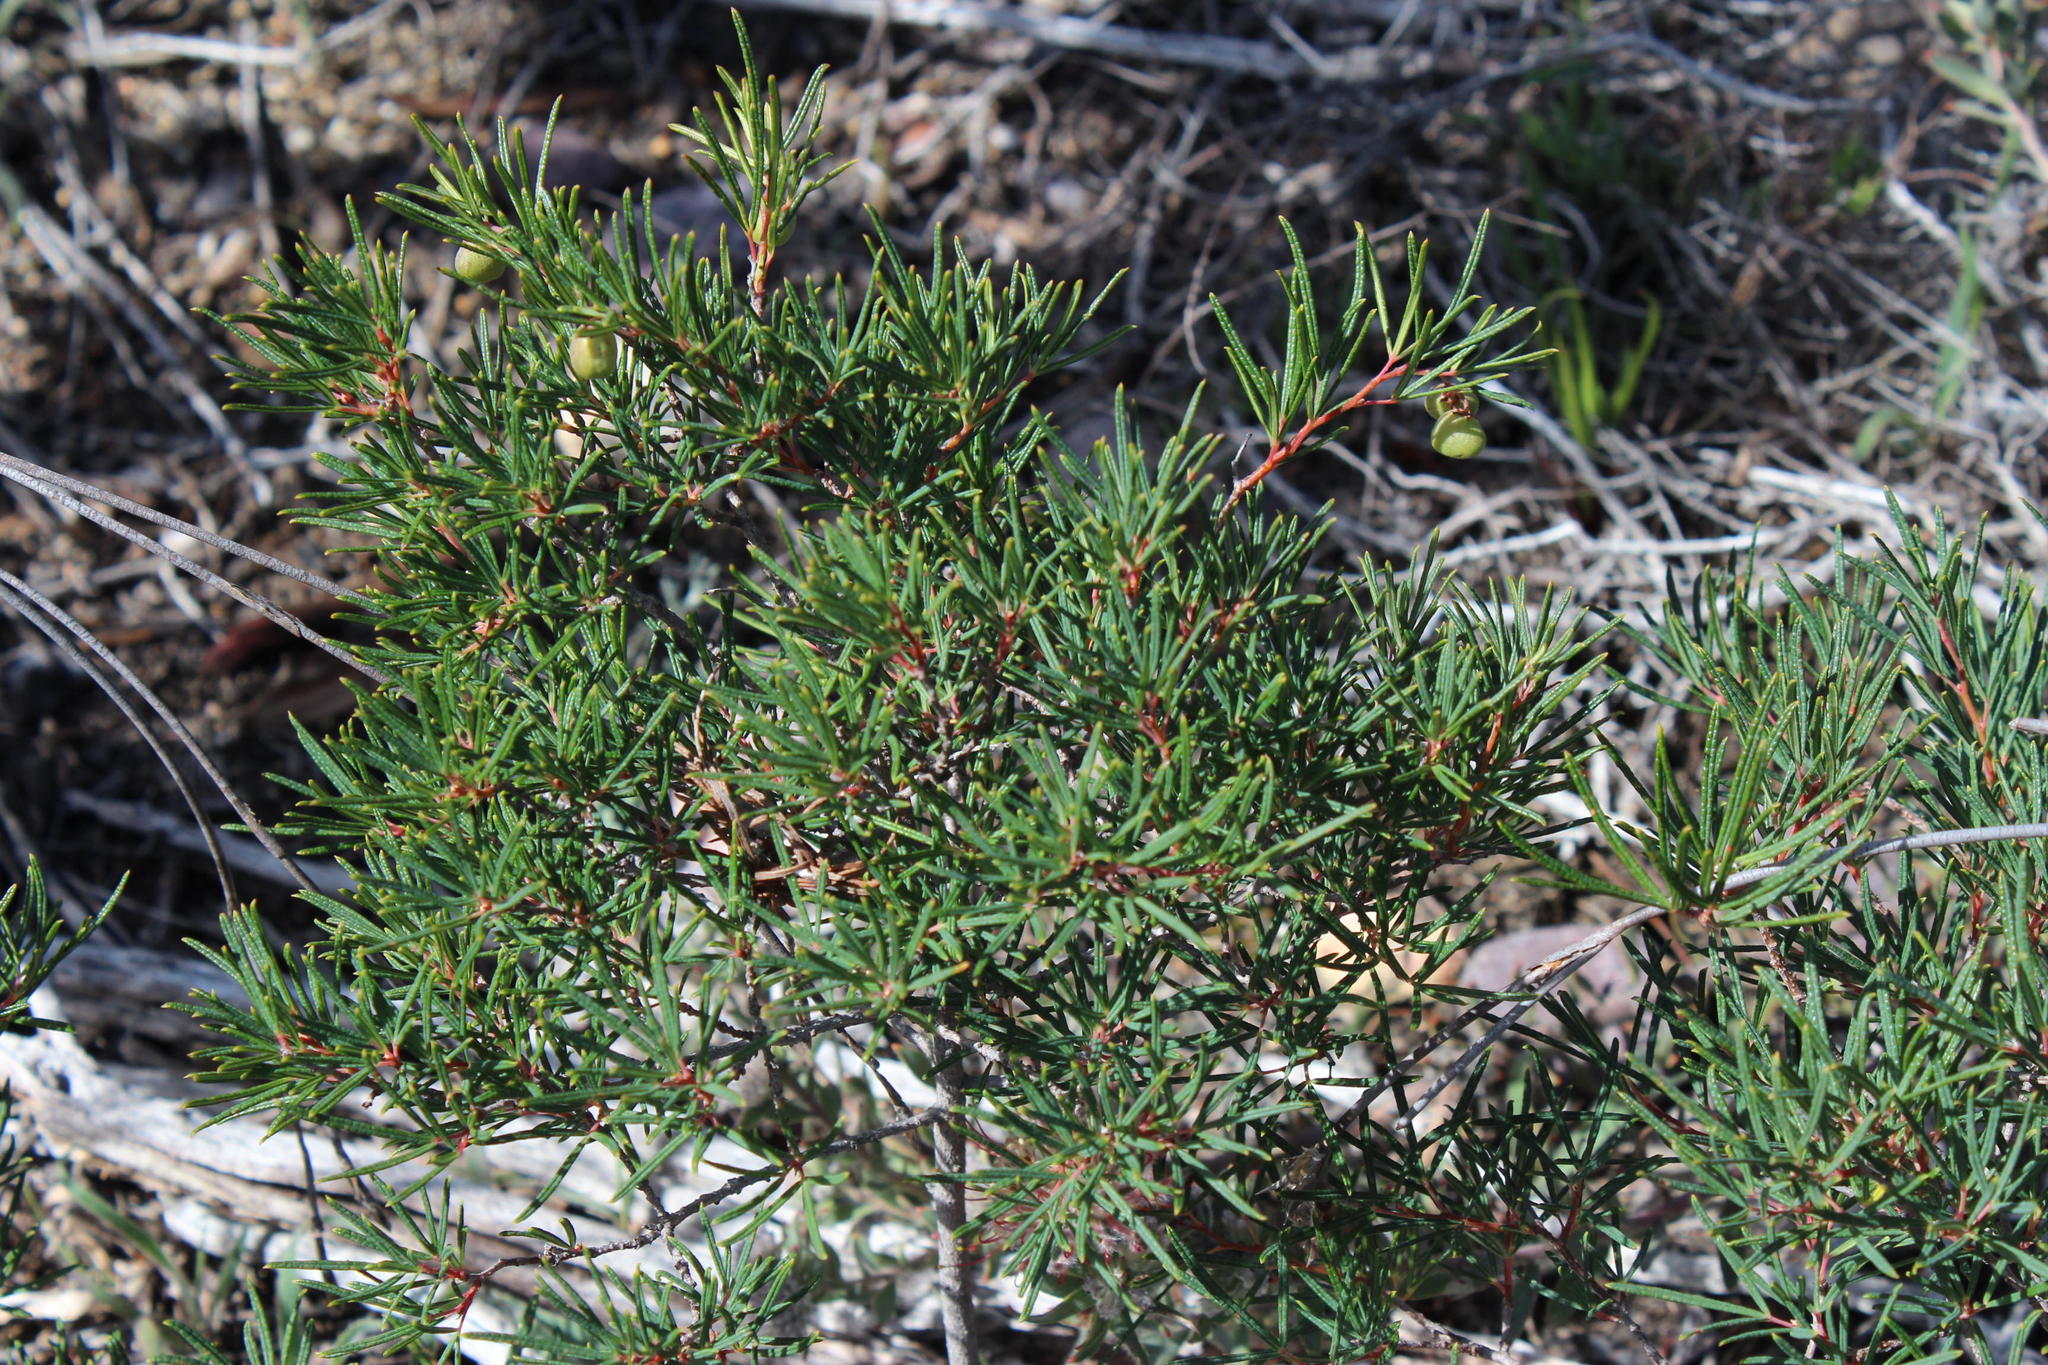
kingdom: Plantae
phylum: Tracheophyta
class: Magnoliopsida
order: Sapindales
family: Anacardiaceae
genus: Searsia
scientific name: Searsia rosmarinifolia
